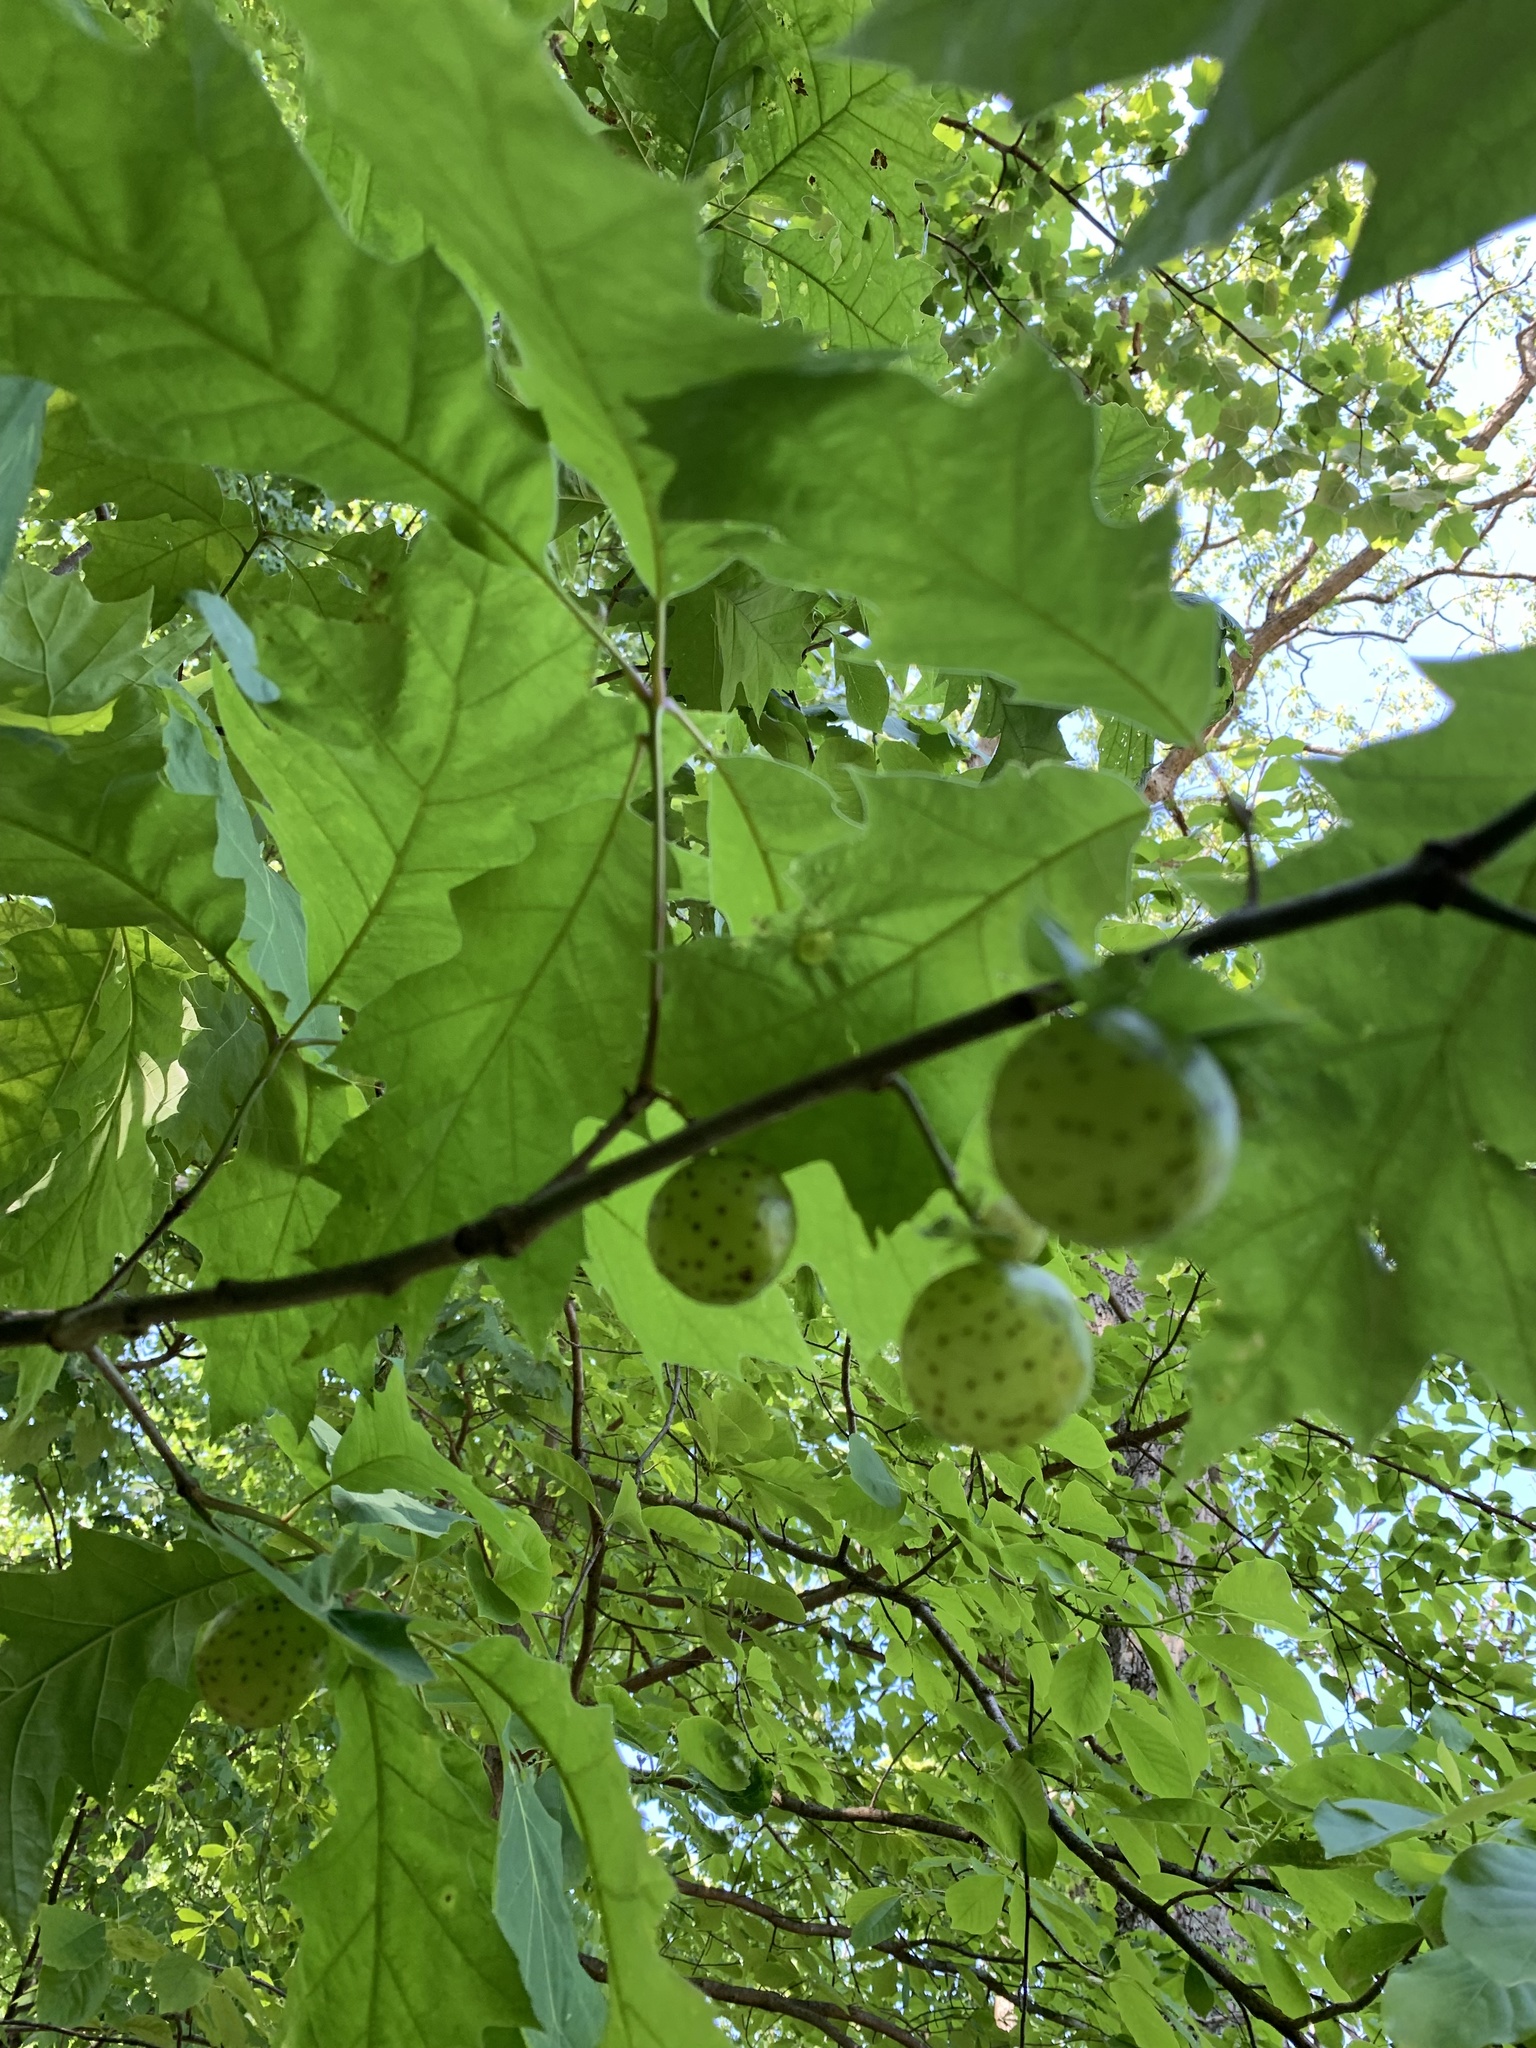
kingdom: Animalia
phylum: Arthropoda
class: Insecta
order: Hymenoptera
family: Cynipidae
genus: Amphibolips
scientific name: Amphibolips
